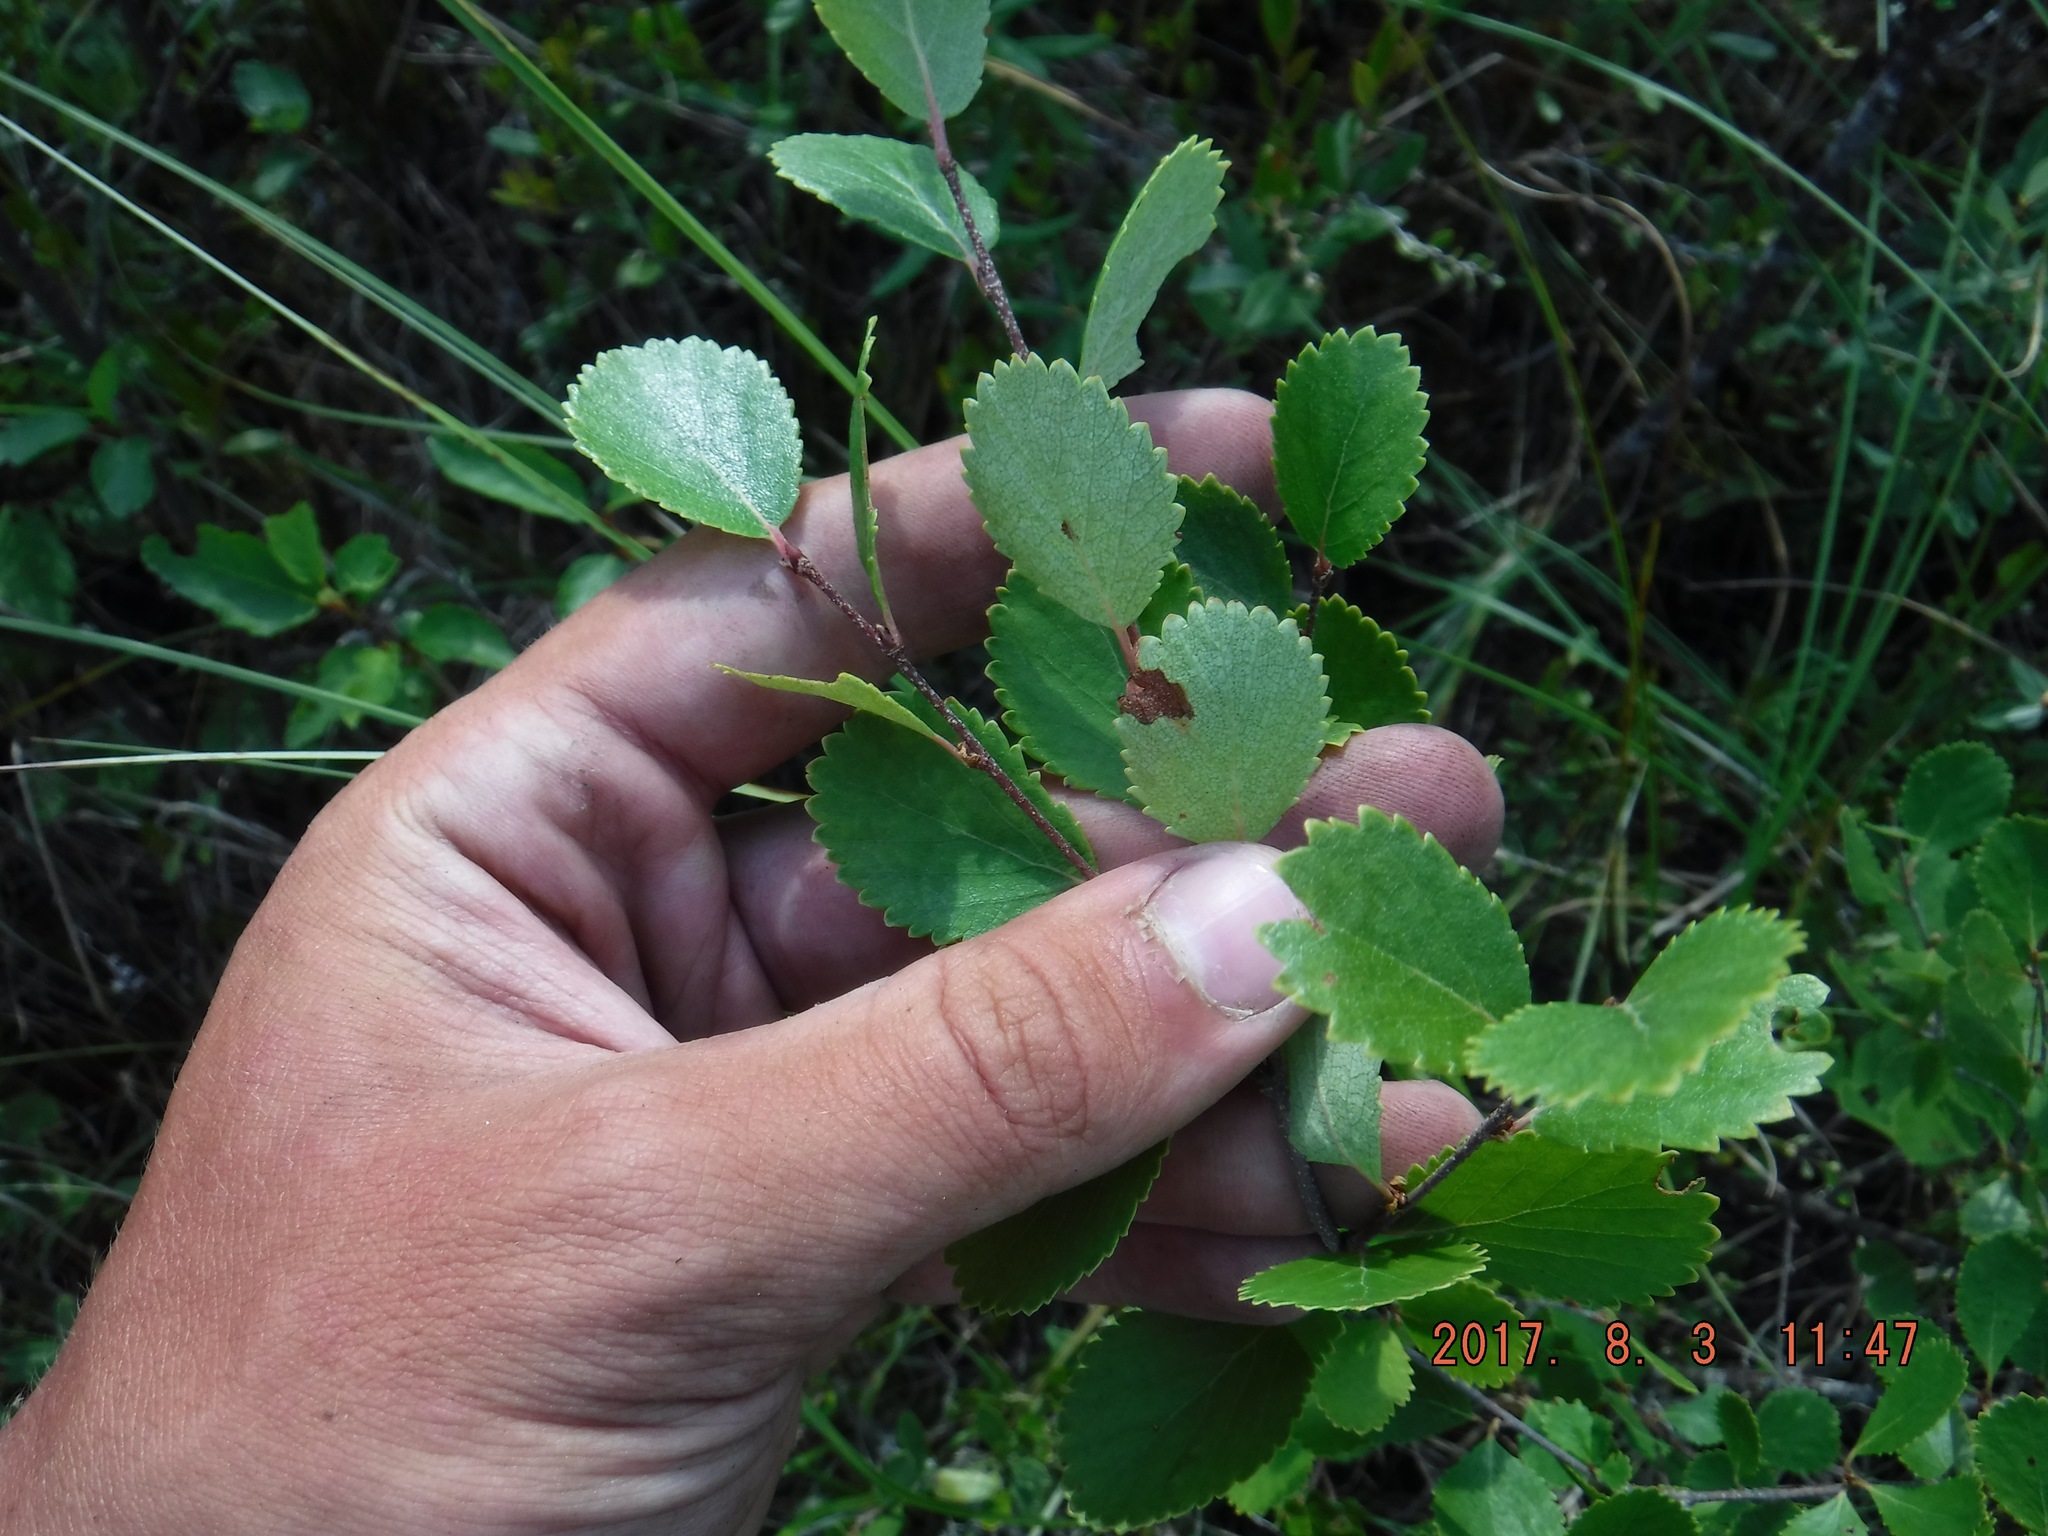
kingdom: Plantae
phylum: Tracheophyta
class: Magnoliopsida
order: Fagales
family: Betulaceae
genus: Betula
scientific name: Betula pumila
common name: Bog birch
